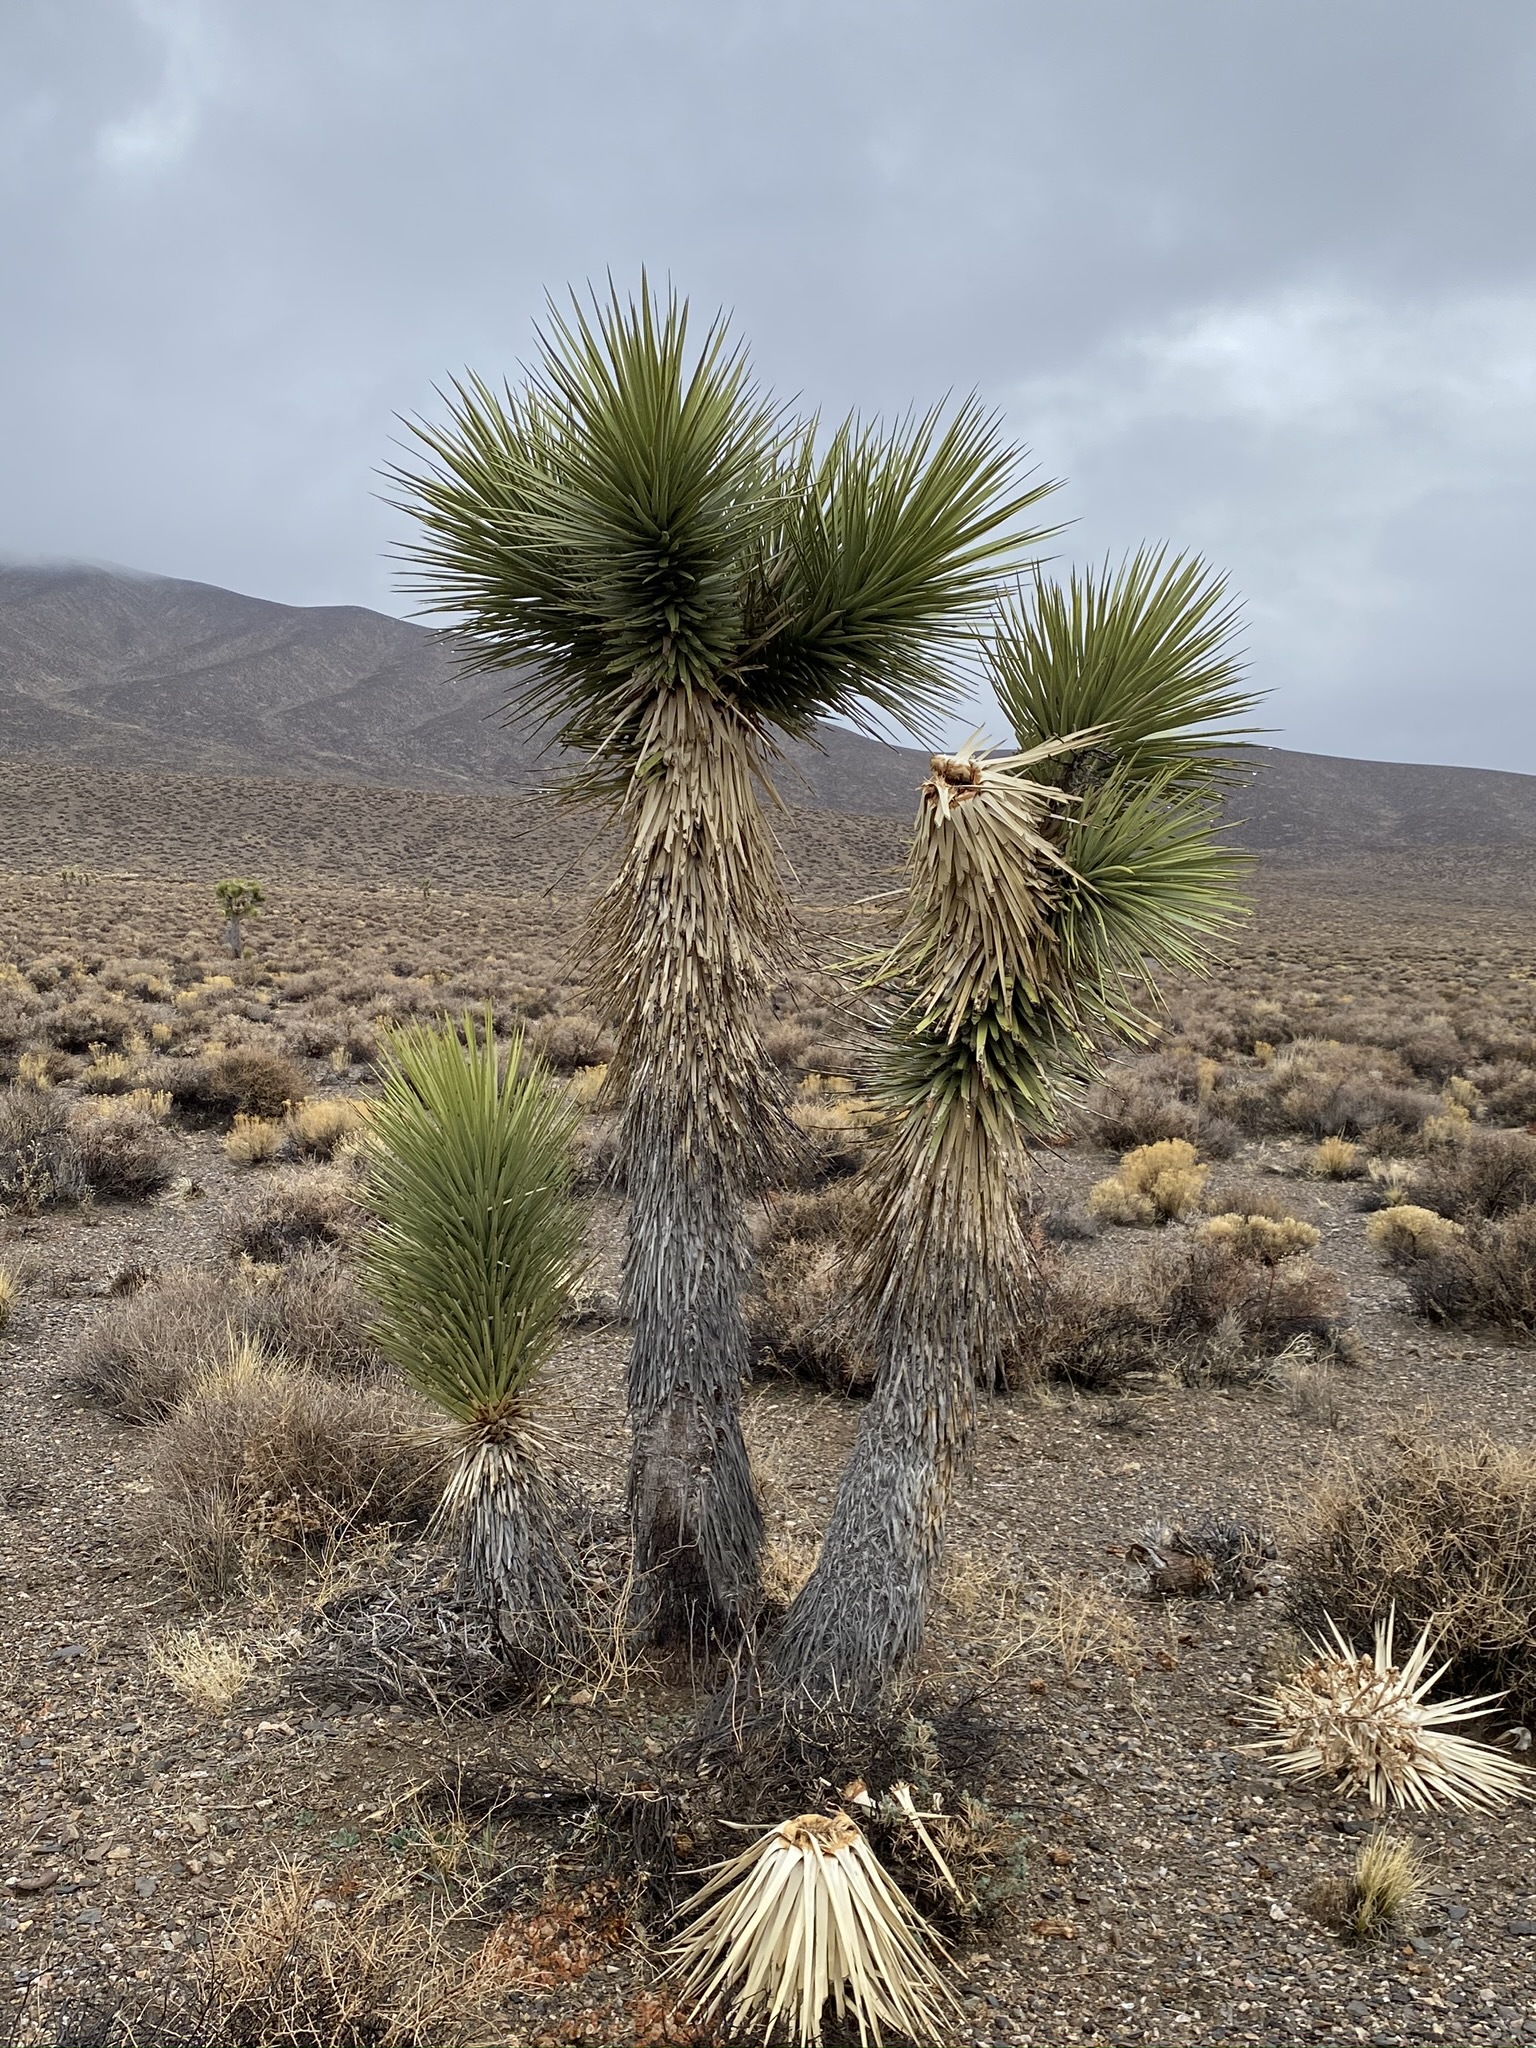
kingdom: Plantae
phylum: Tracheophyta
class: Liliopsida
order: Asparagales
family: Asparagaceae
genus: Yucca
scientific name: Yucca brevifolia
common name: Joshua tree
